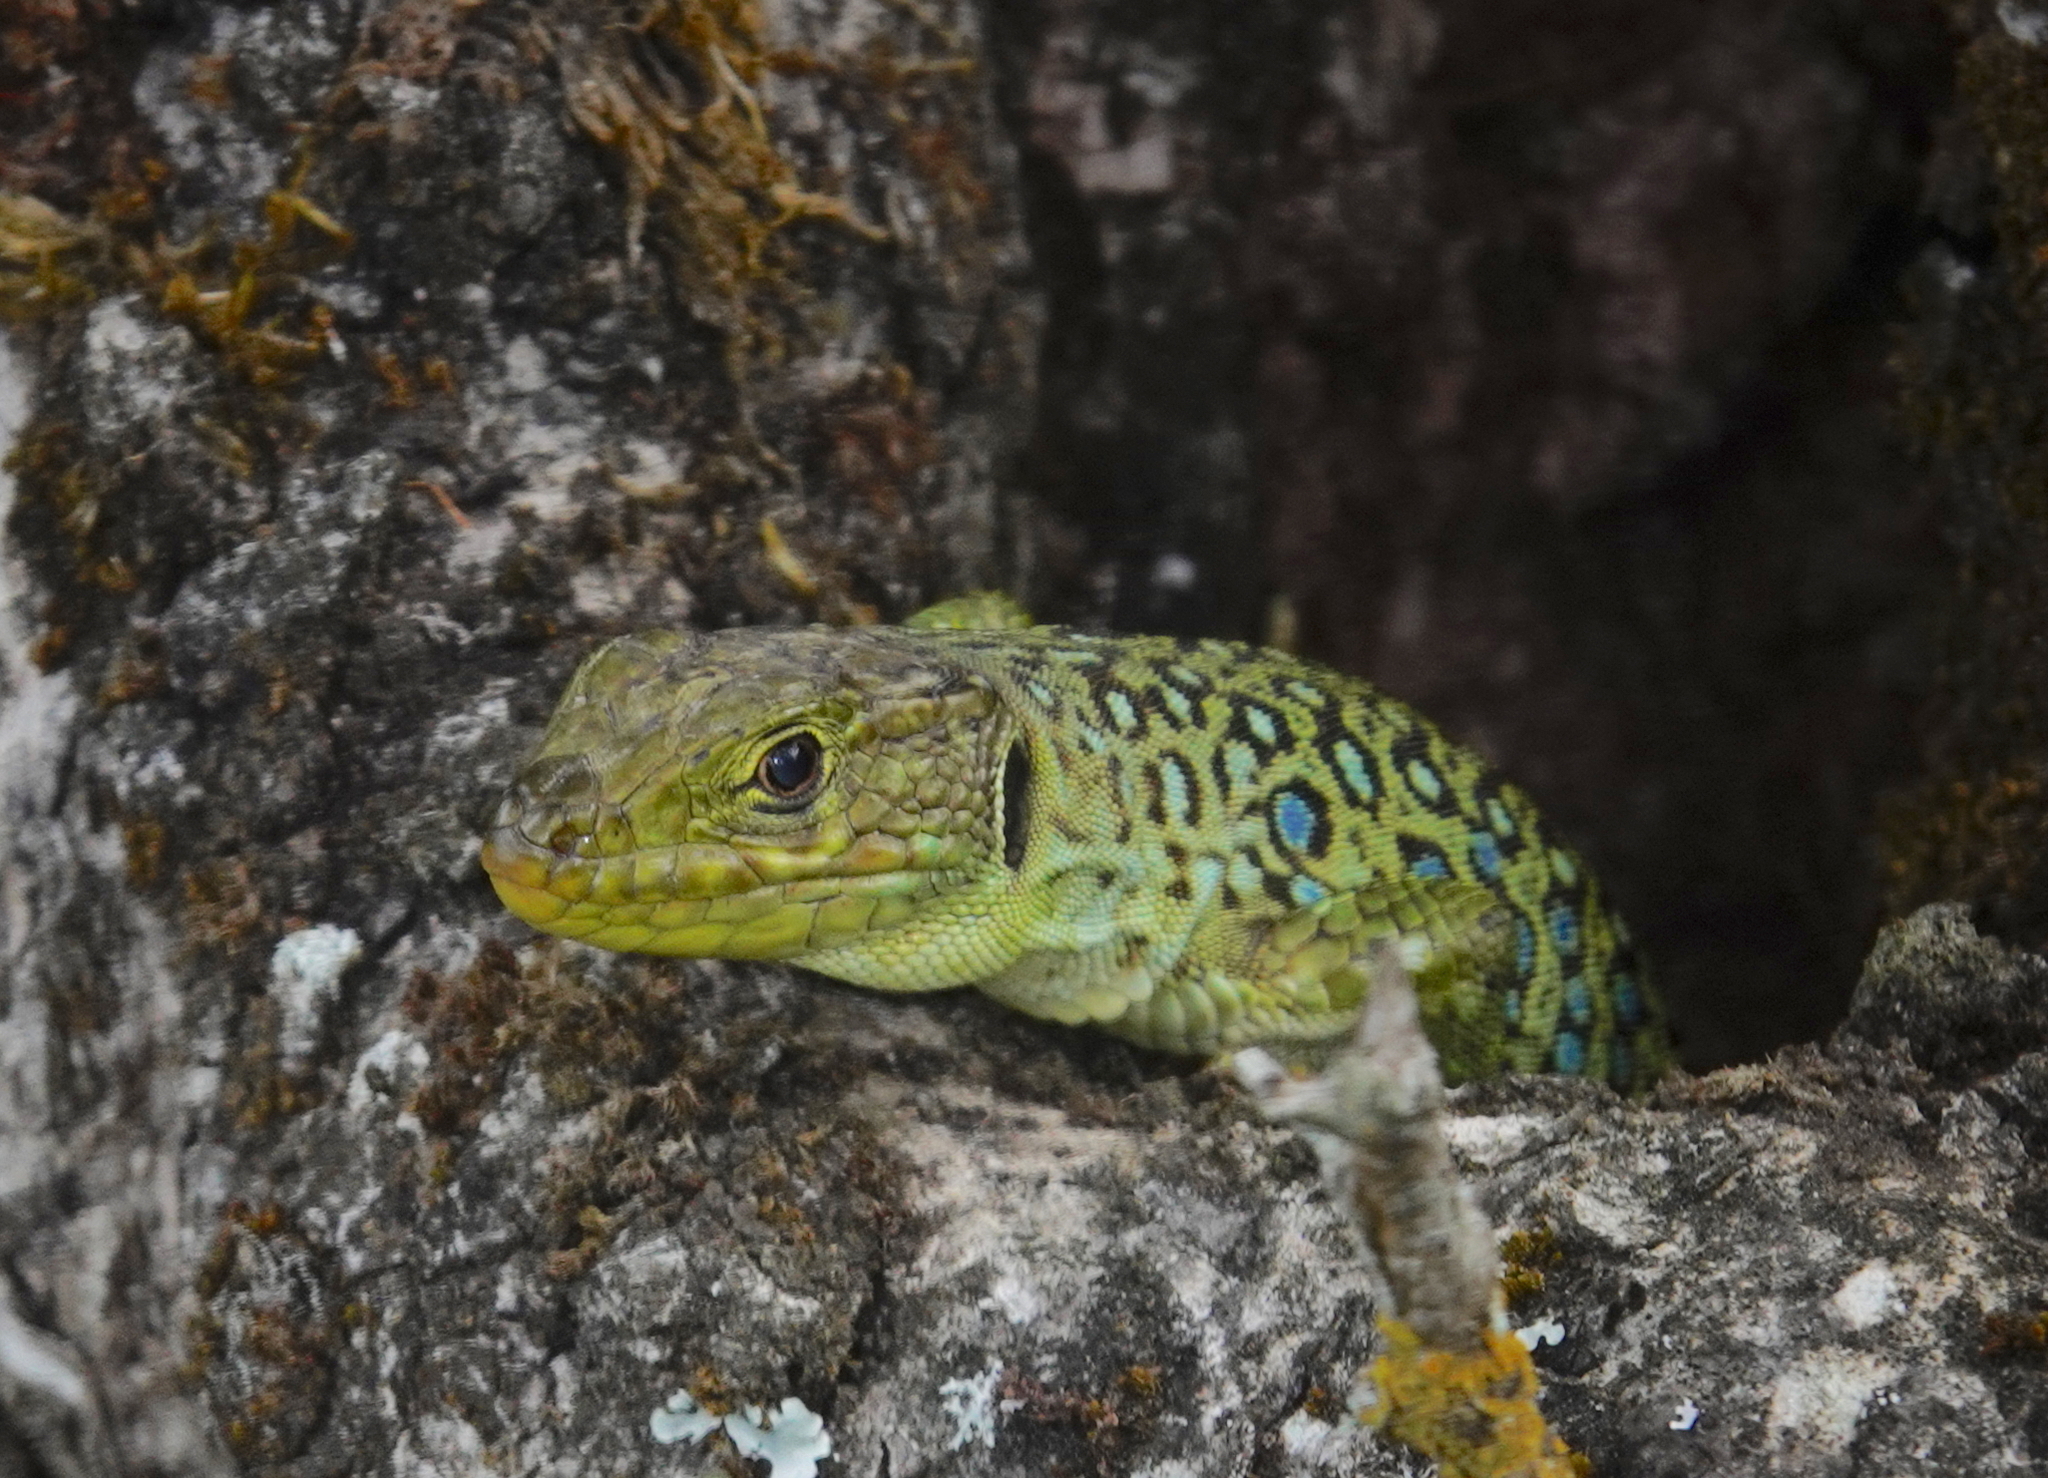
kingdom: Animalia
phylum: Chordata
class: Squamata
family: Lacertidae
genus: Timon
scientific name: Timon lepidus
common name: Ocellated lizard
